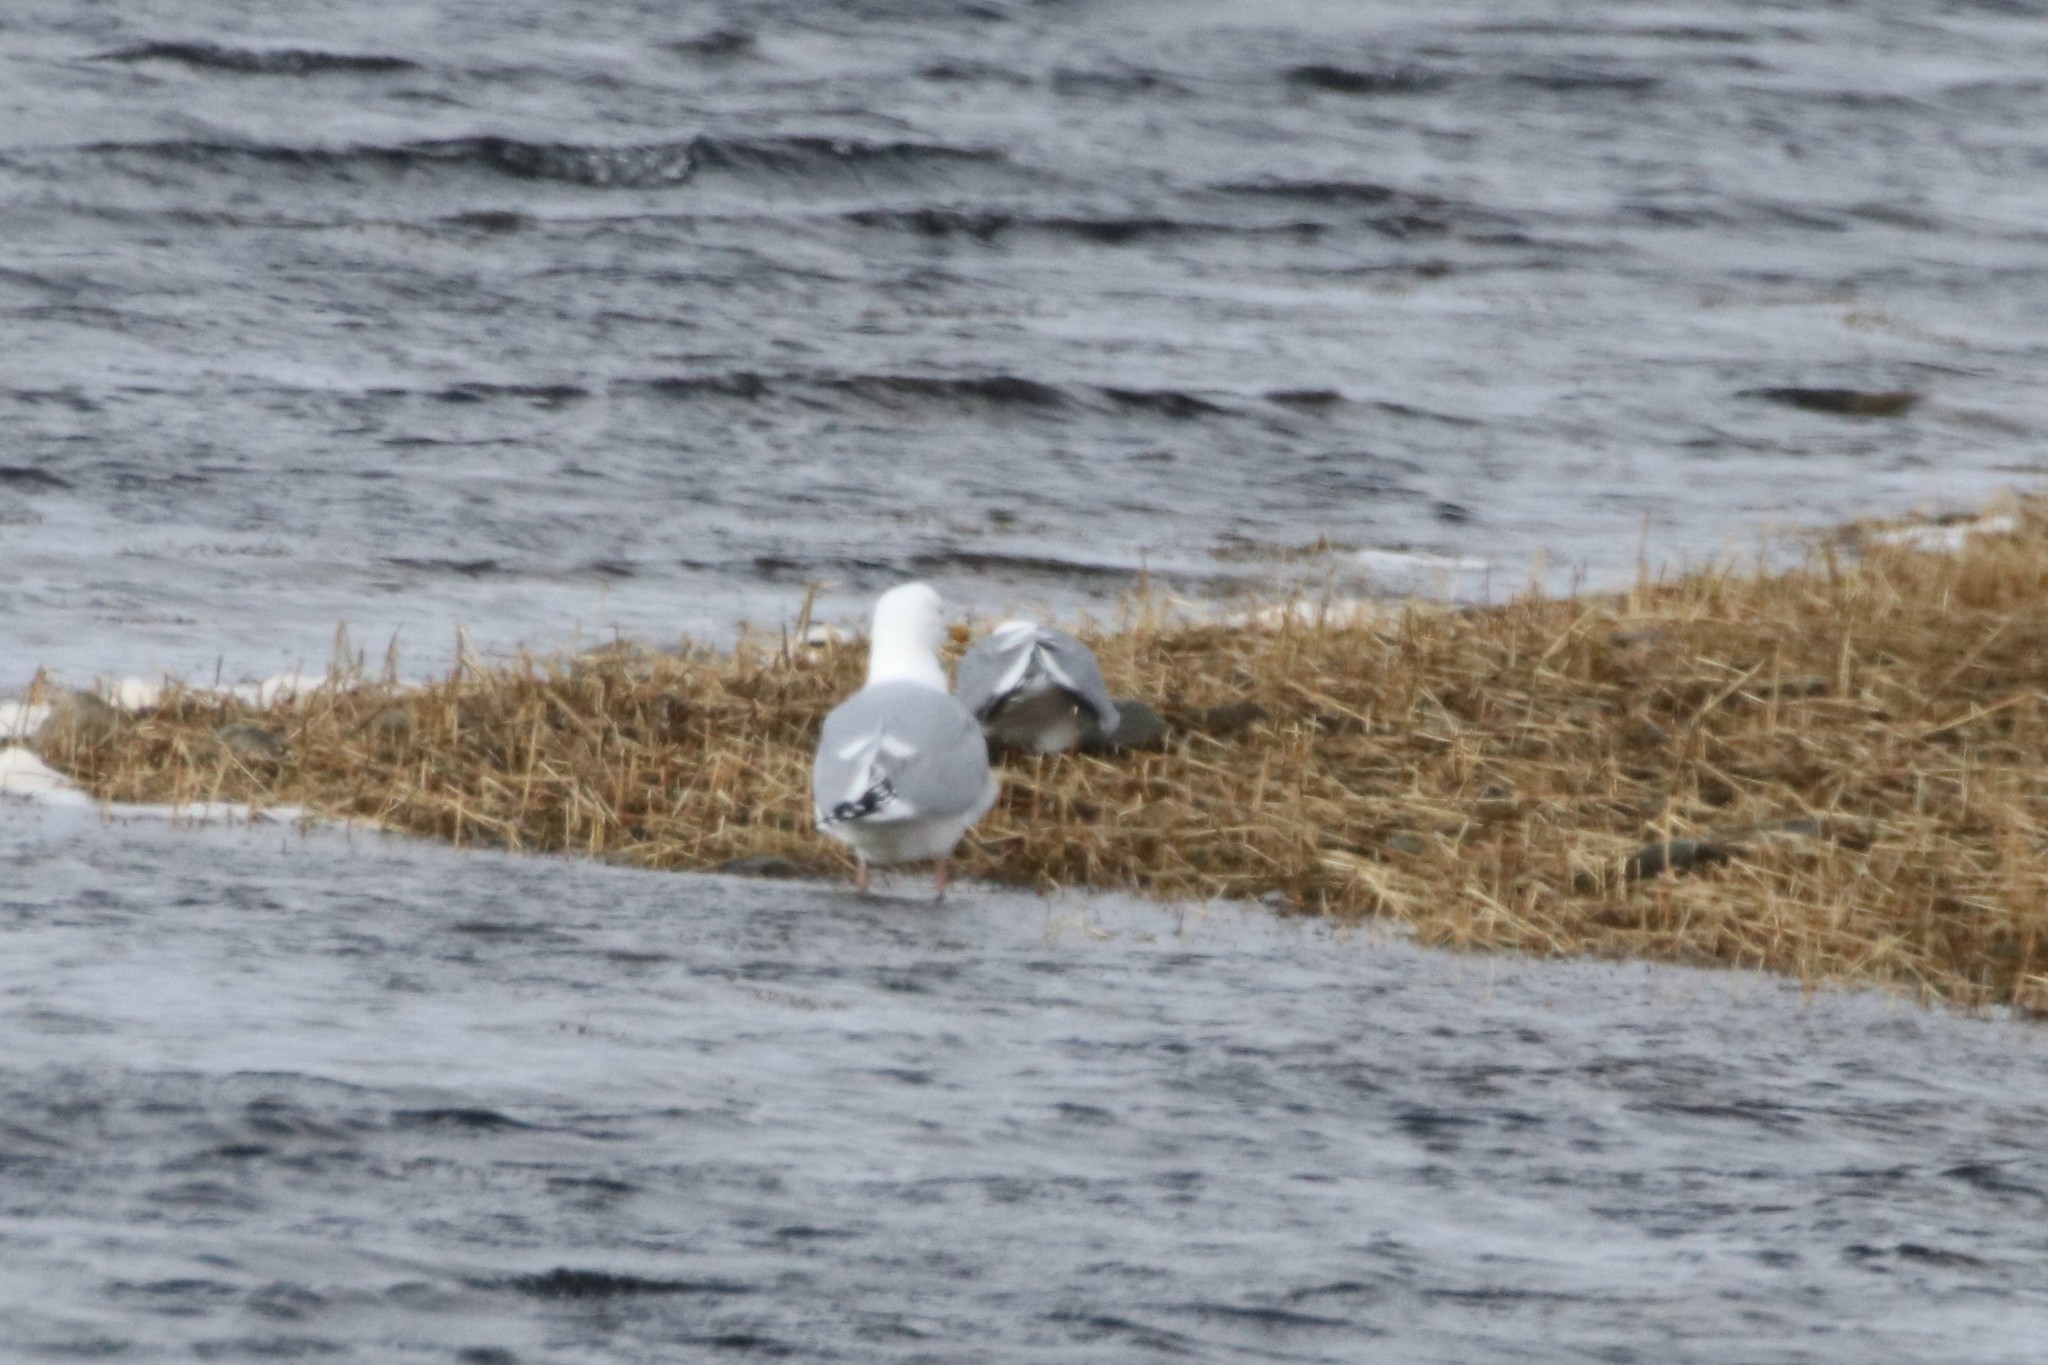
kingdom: Animalia
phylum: Chordata
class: Aves
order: Charadriiformes
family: Laridae
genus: Larus
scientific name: Larus argentatus
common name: Herring gull
